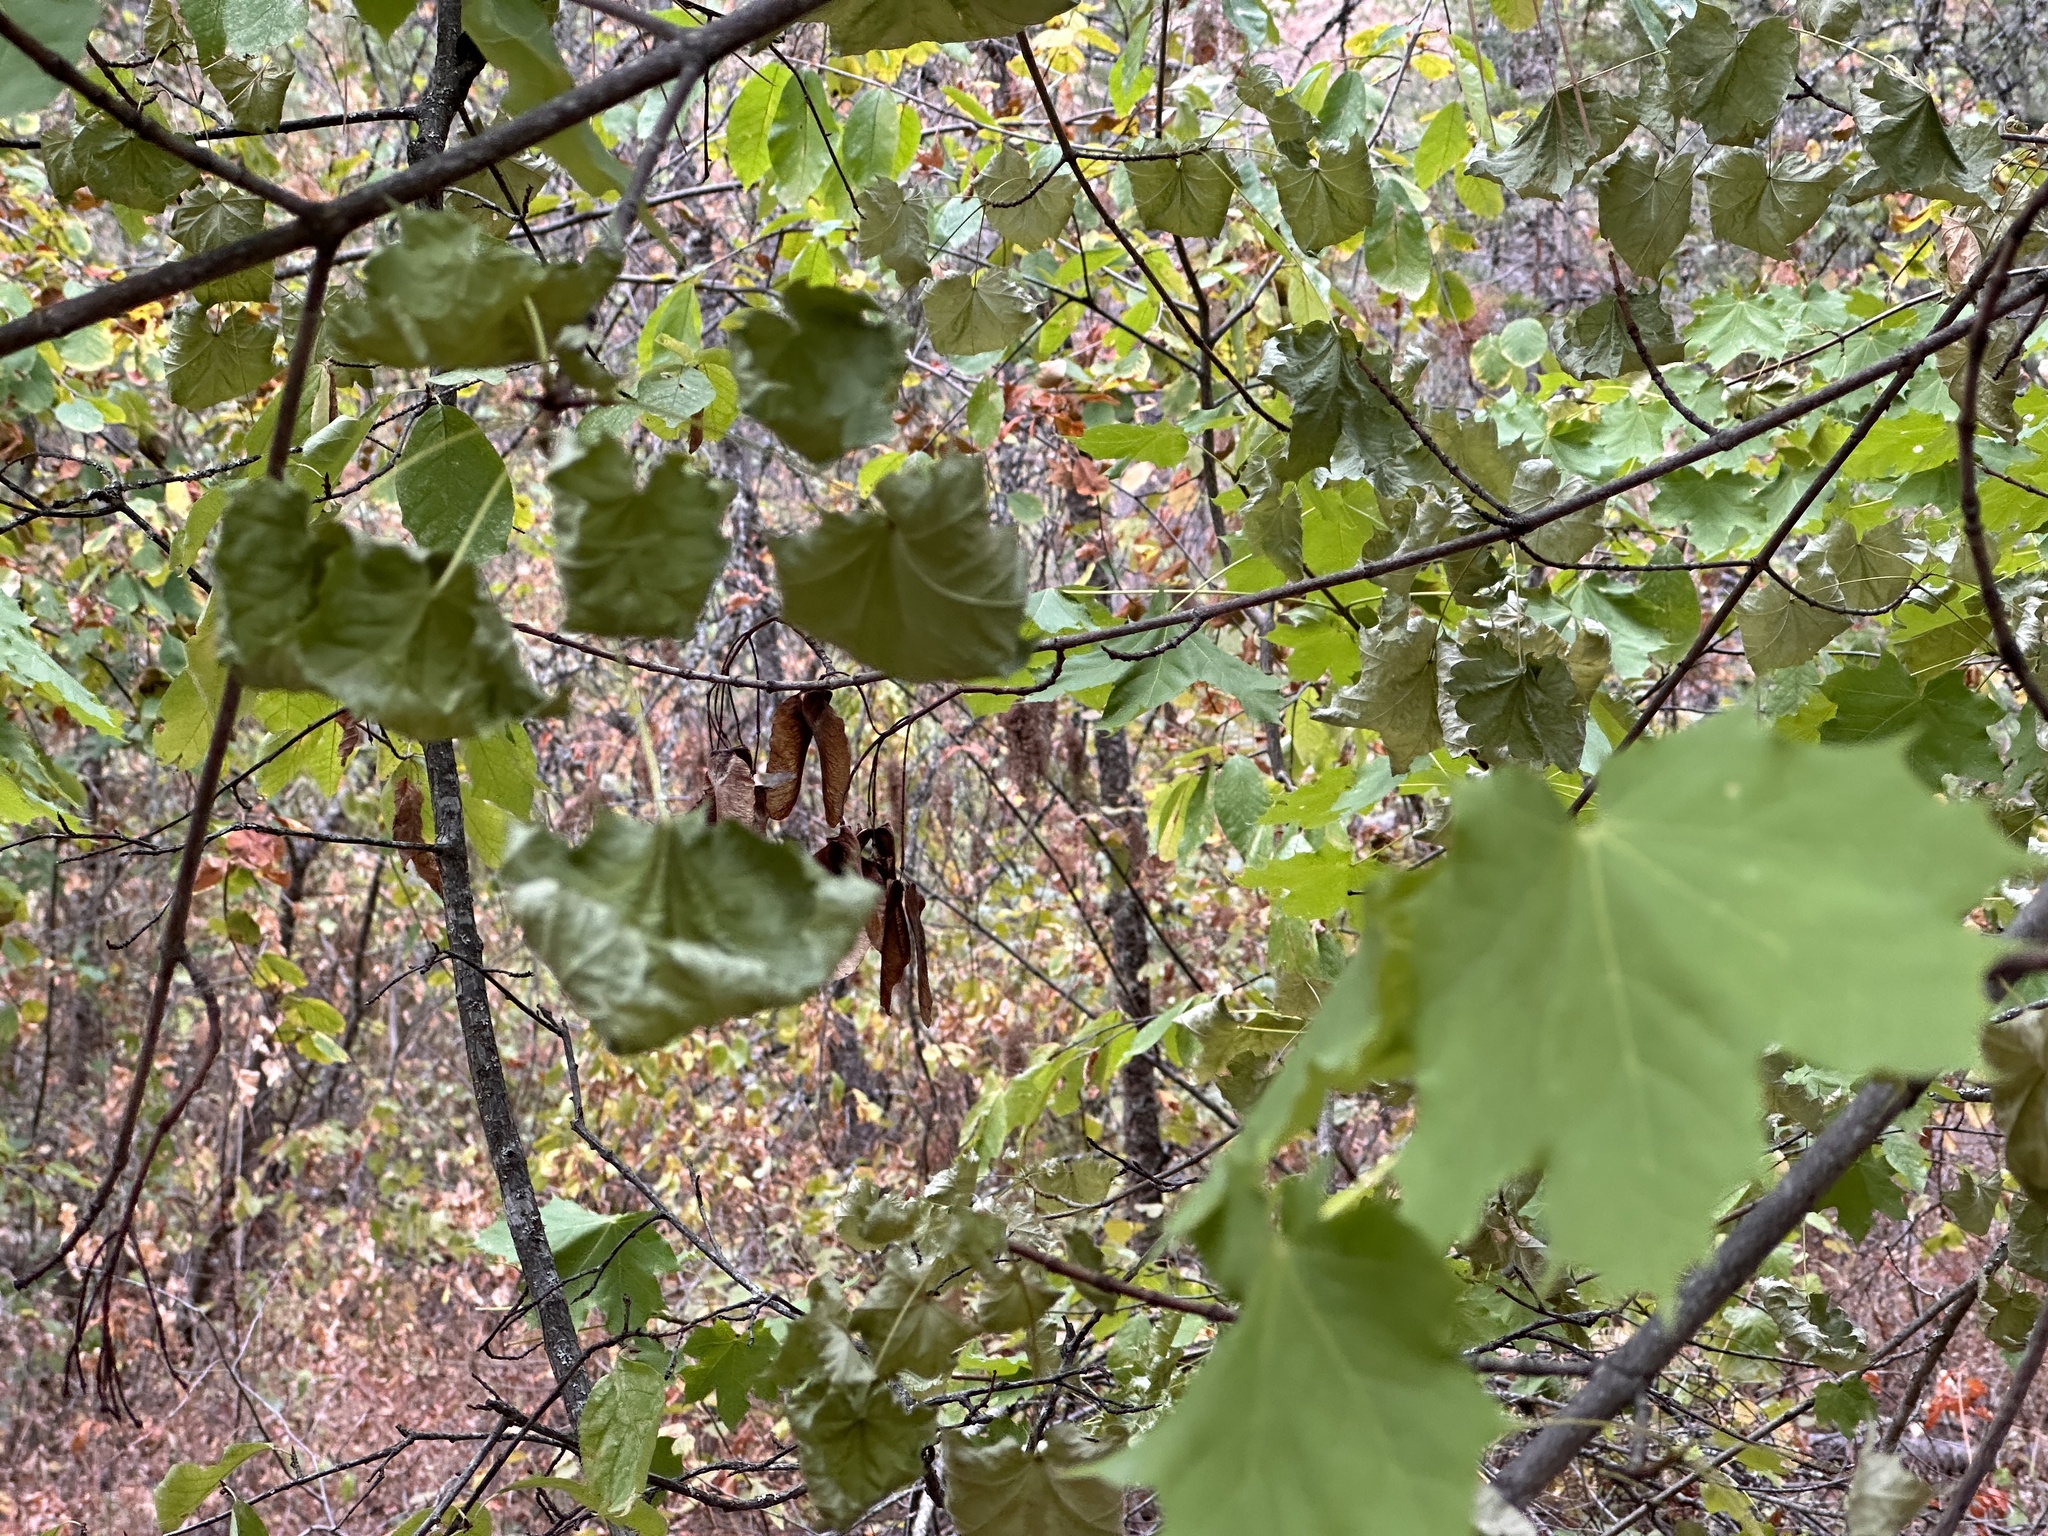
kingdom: Plantae
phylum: Tracheophyta
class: Magnoliopsida
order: Sapindales
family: Sapindaceae
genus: Acer
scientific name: Acer platanoides
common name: Norway maple
